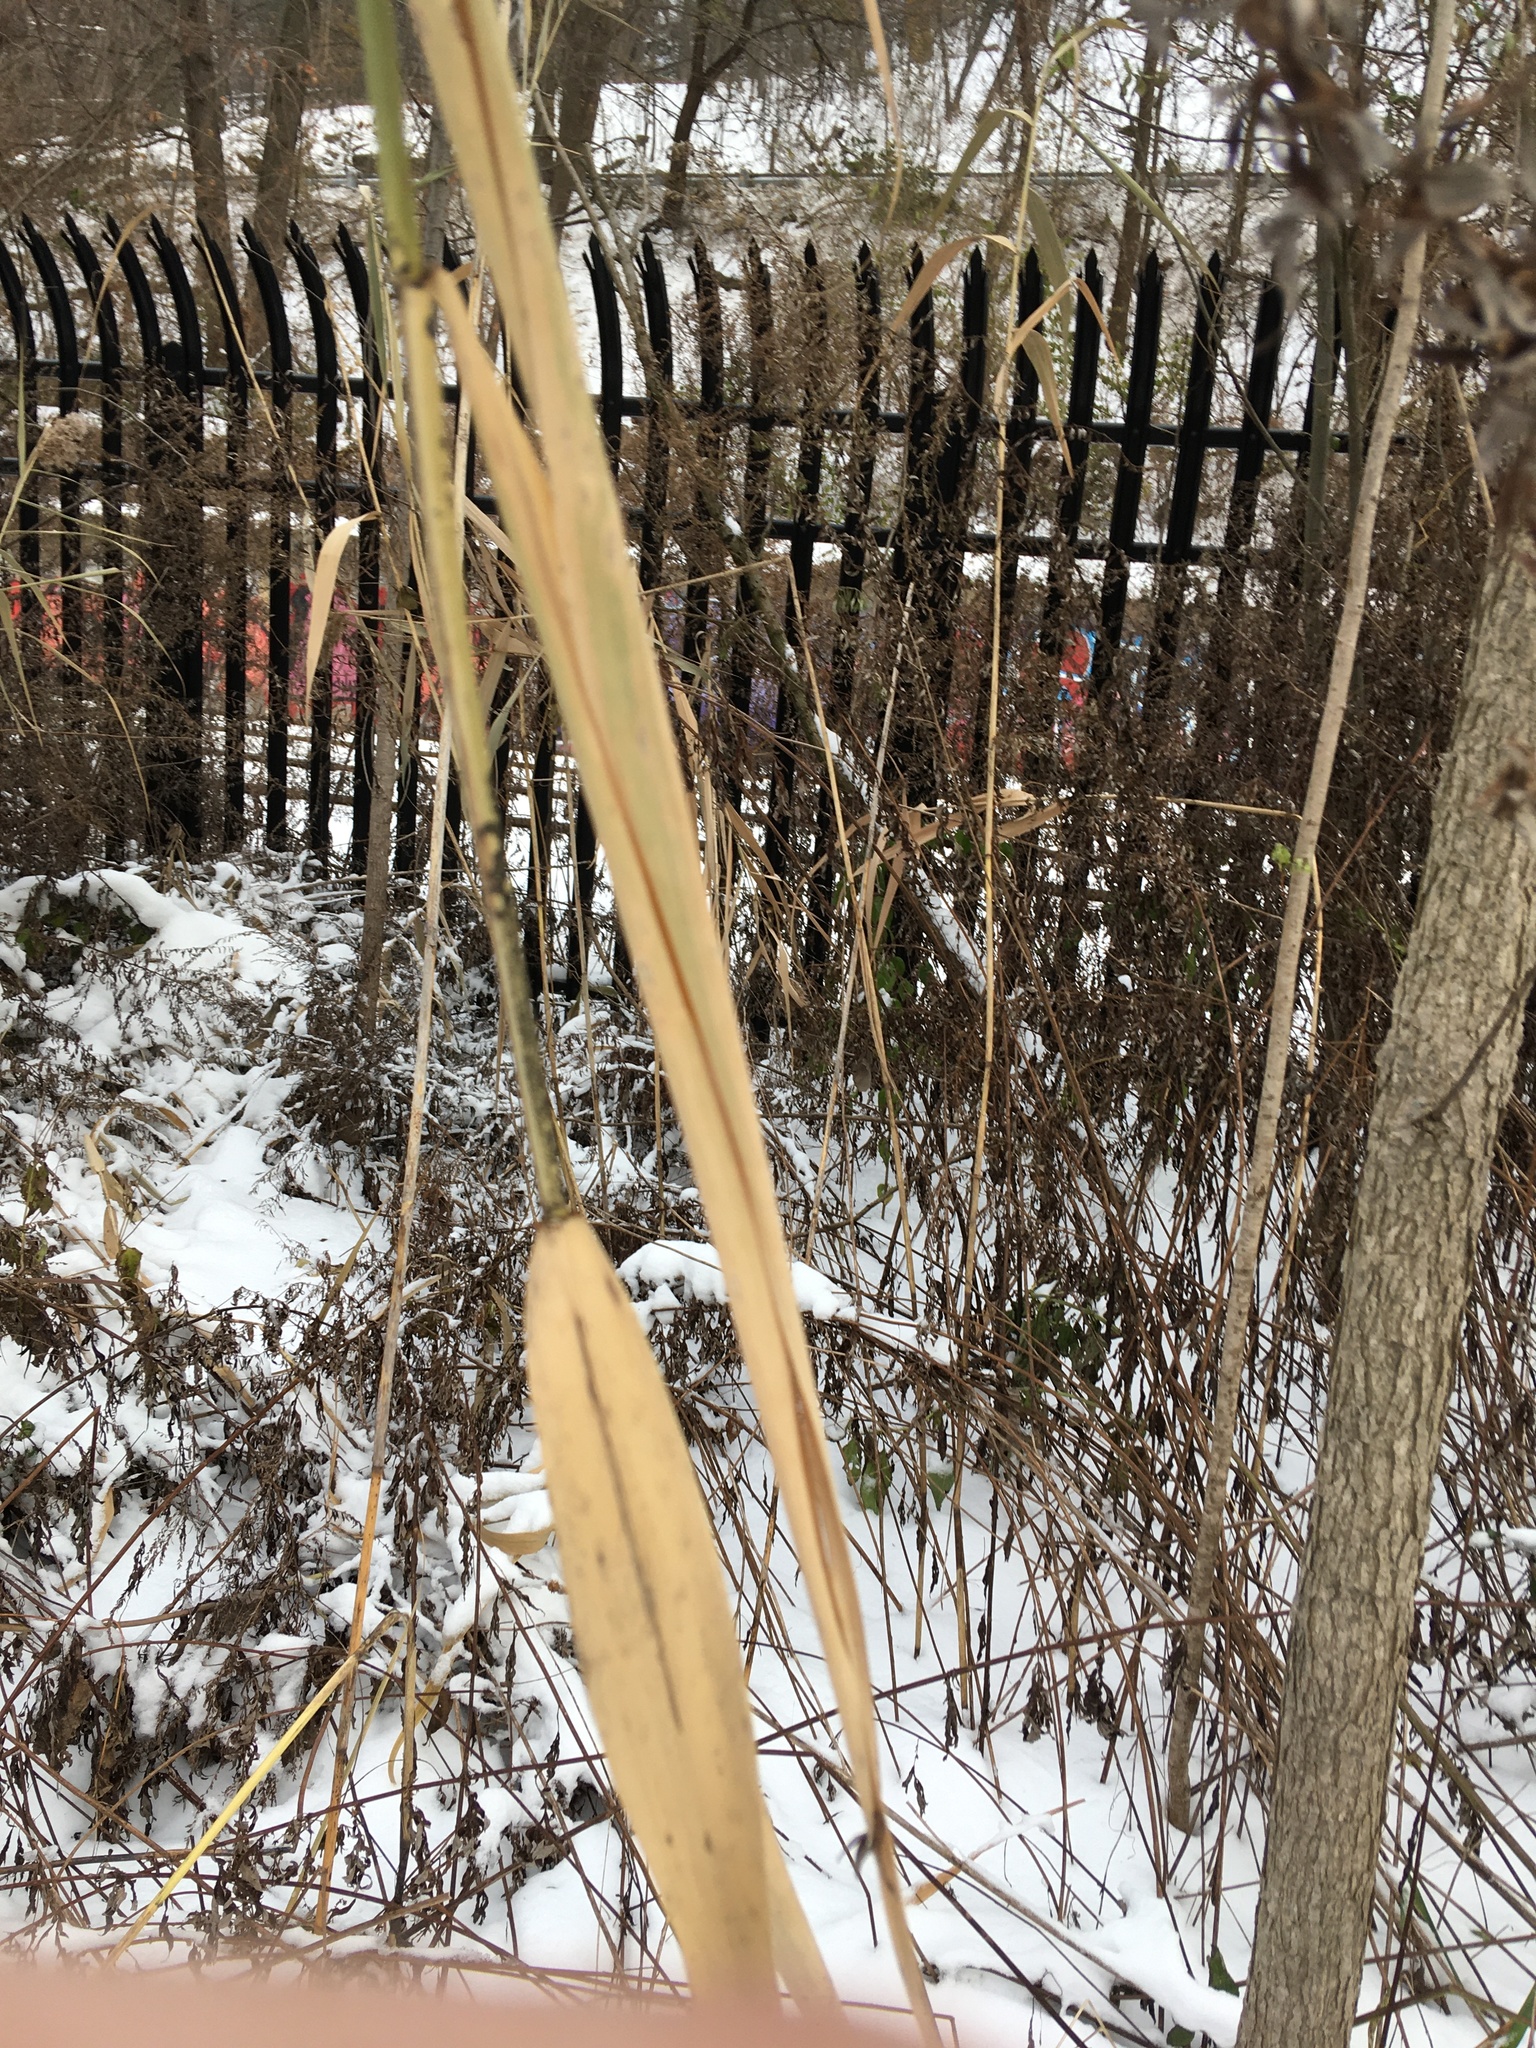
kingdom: Plantae
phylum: Tracheophyta
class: Liliopsida
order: Poales
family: Poaceae
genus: Phragmites
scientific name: Phragmites australis
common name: Common reed
